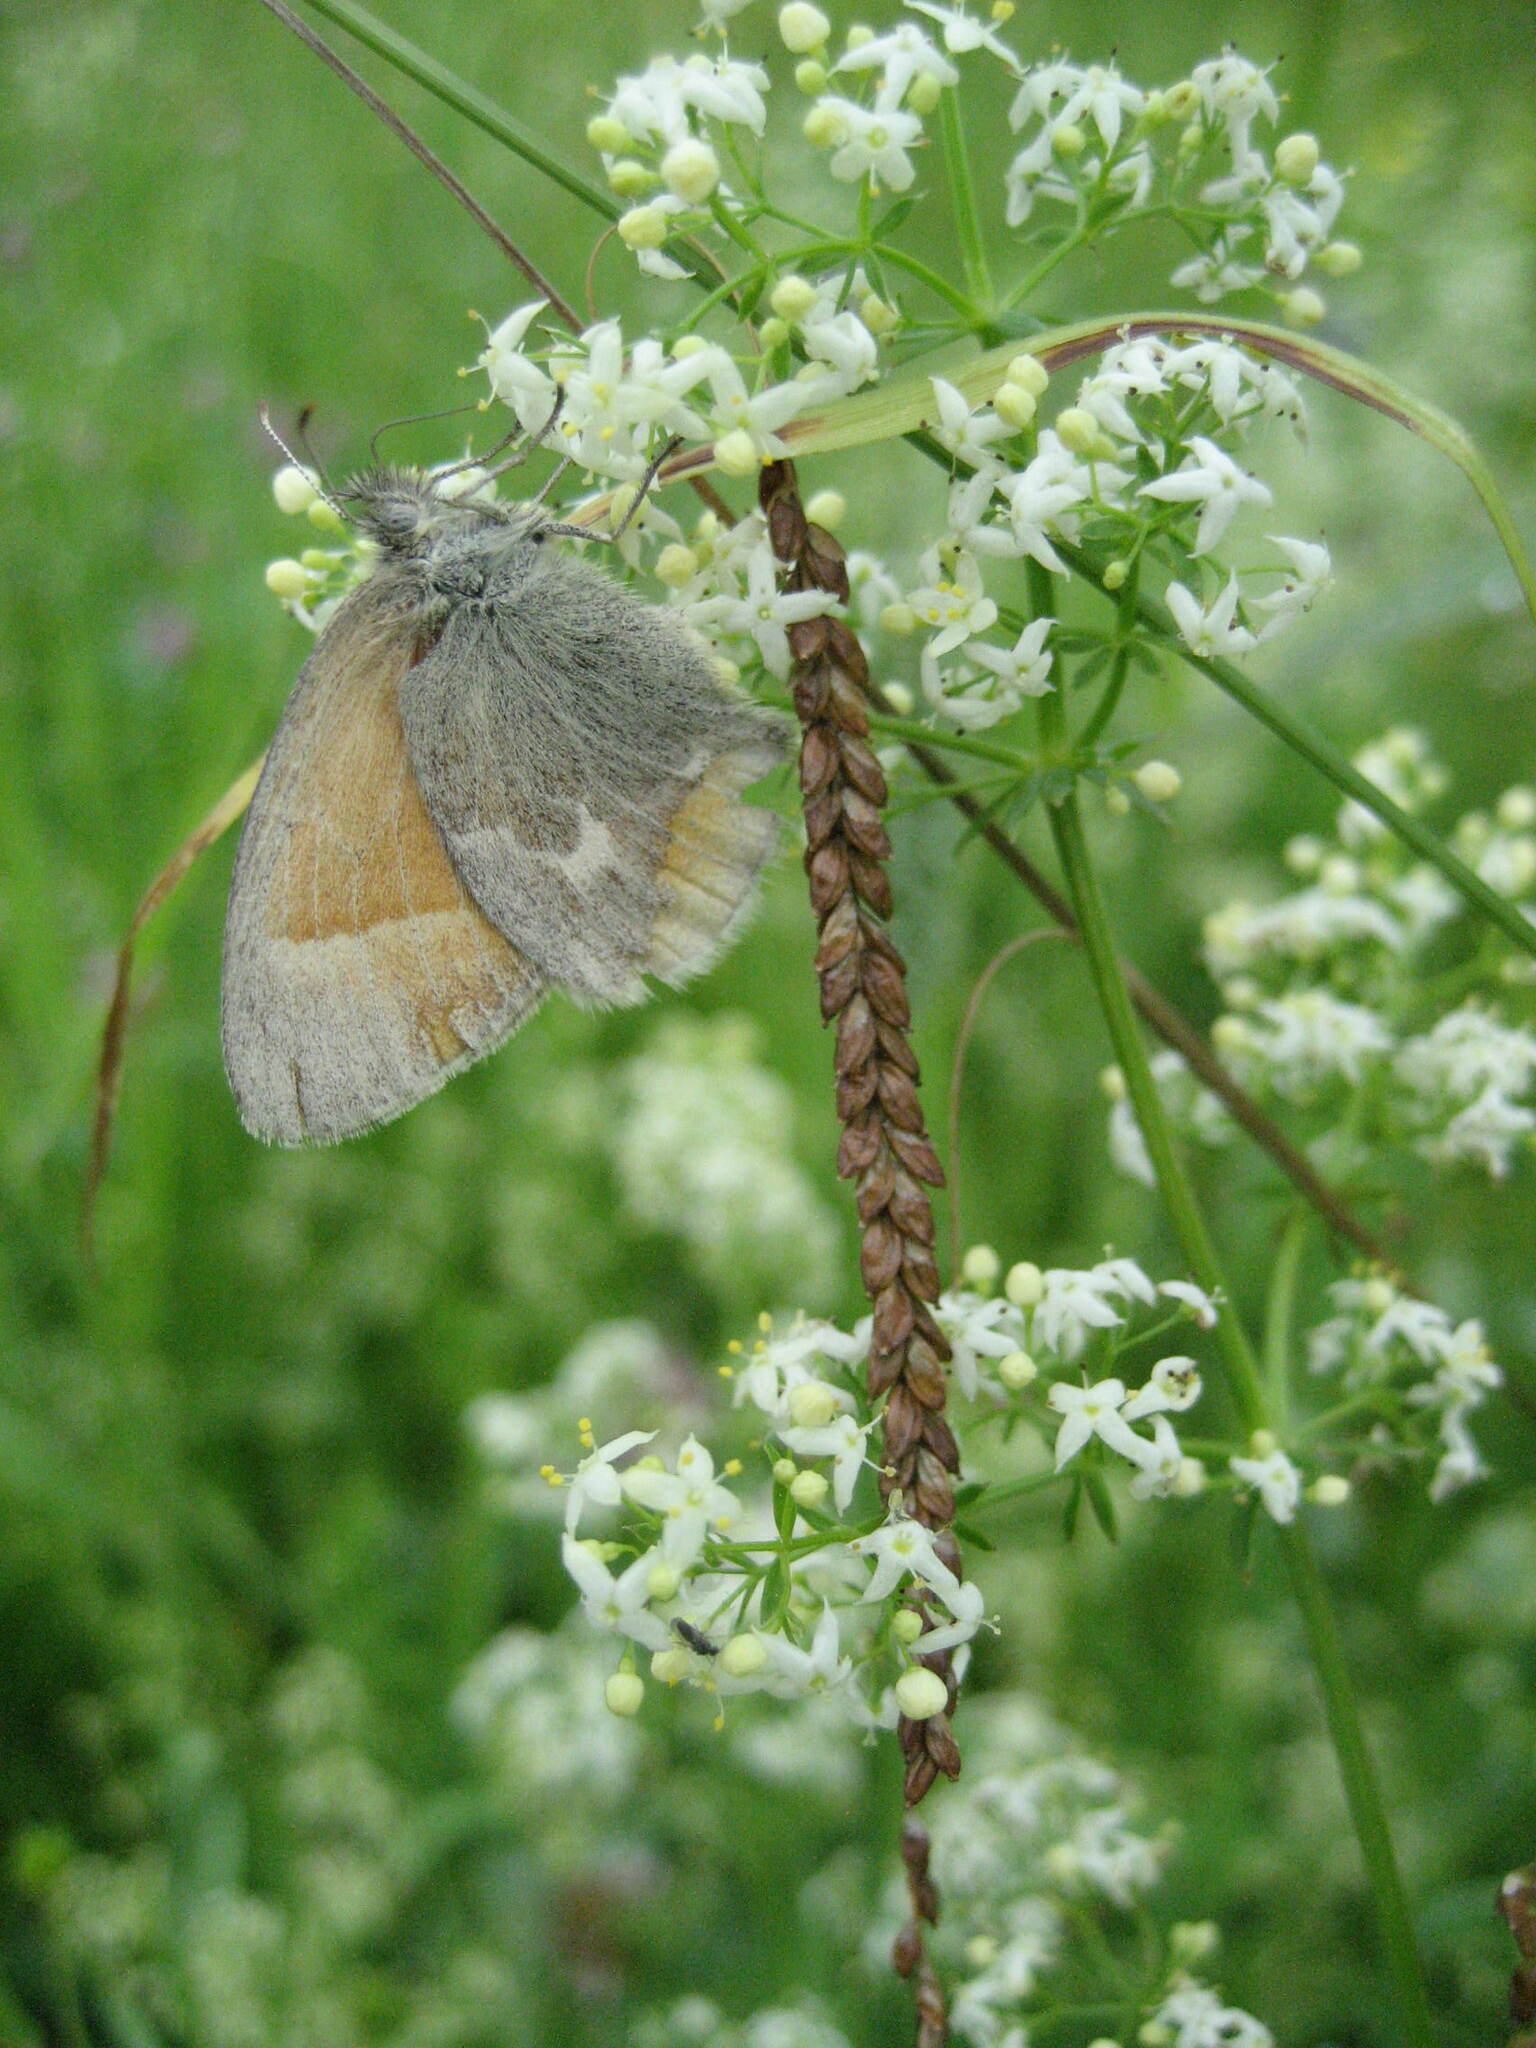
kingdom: Animalia
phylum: Arthropoda
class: Insecta
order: Lepidoptera
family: Nymphalidae
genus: Coenonympha
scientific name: Coenonympha california
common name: Common ringlet
